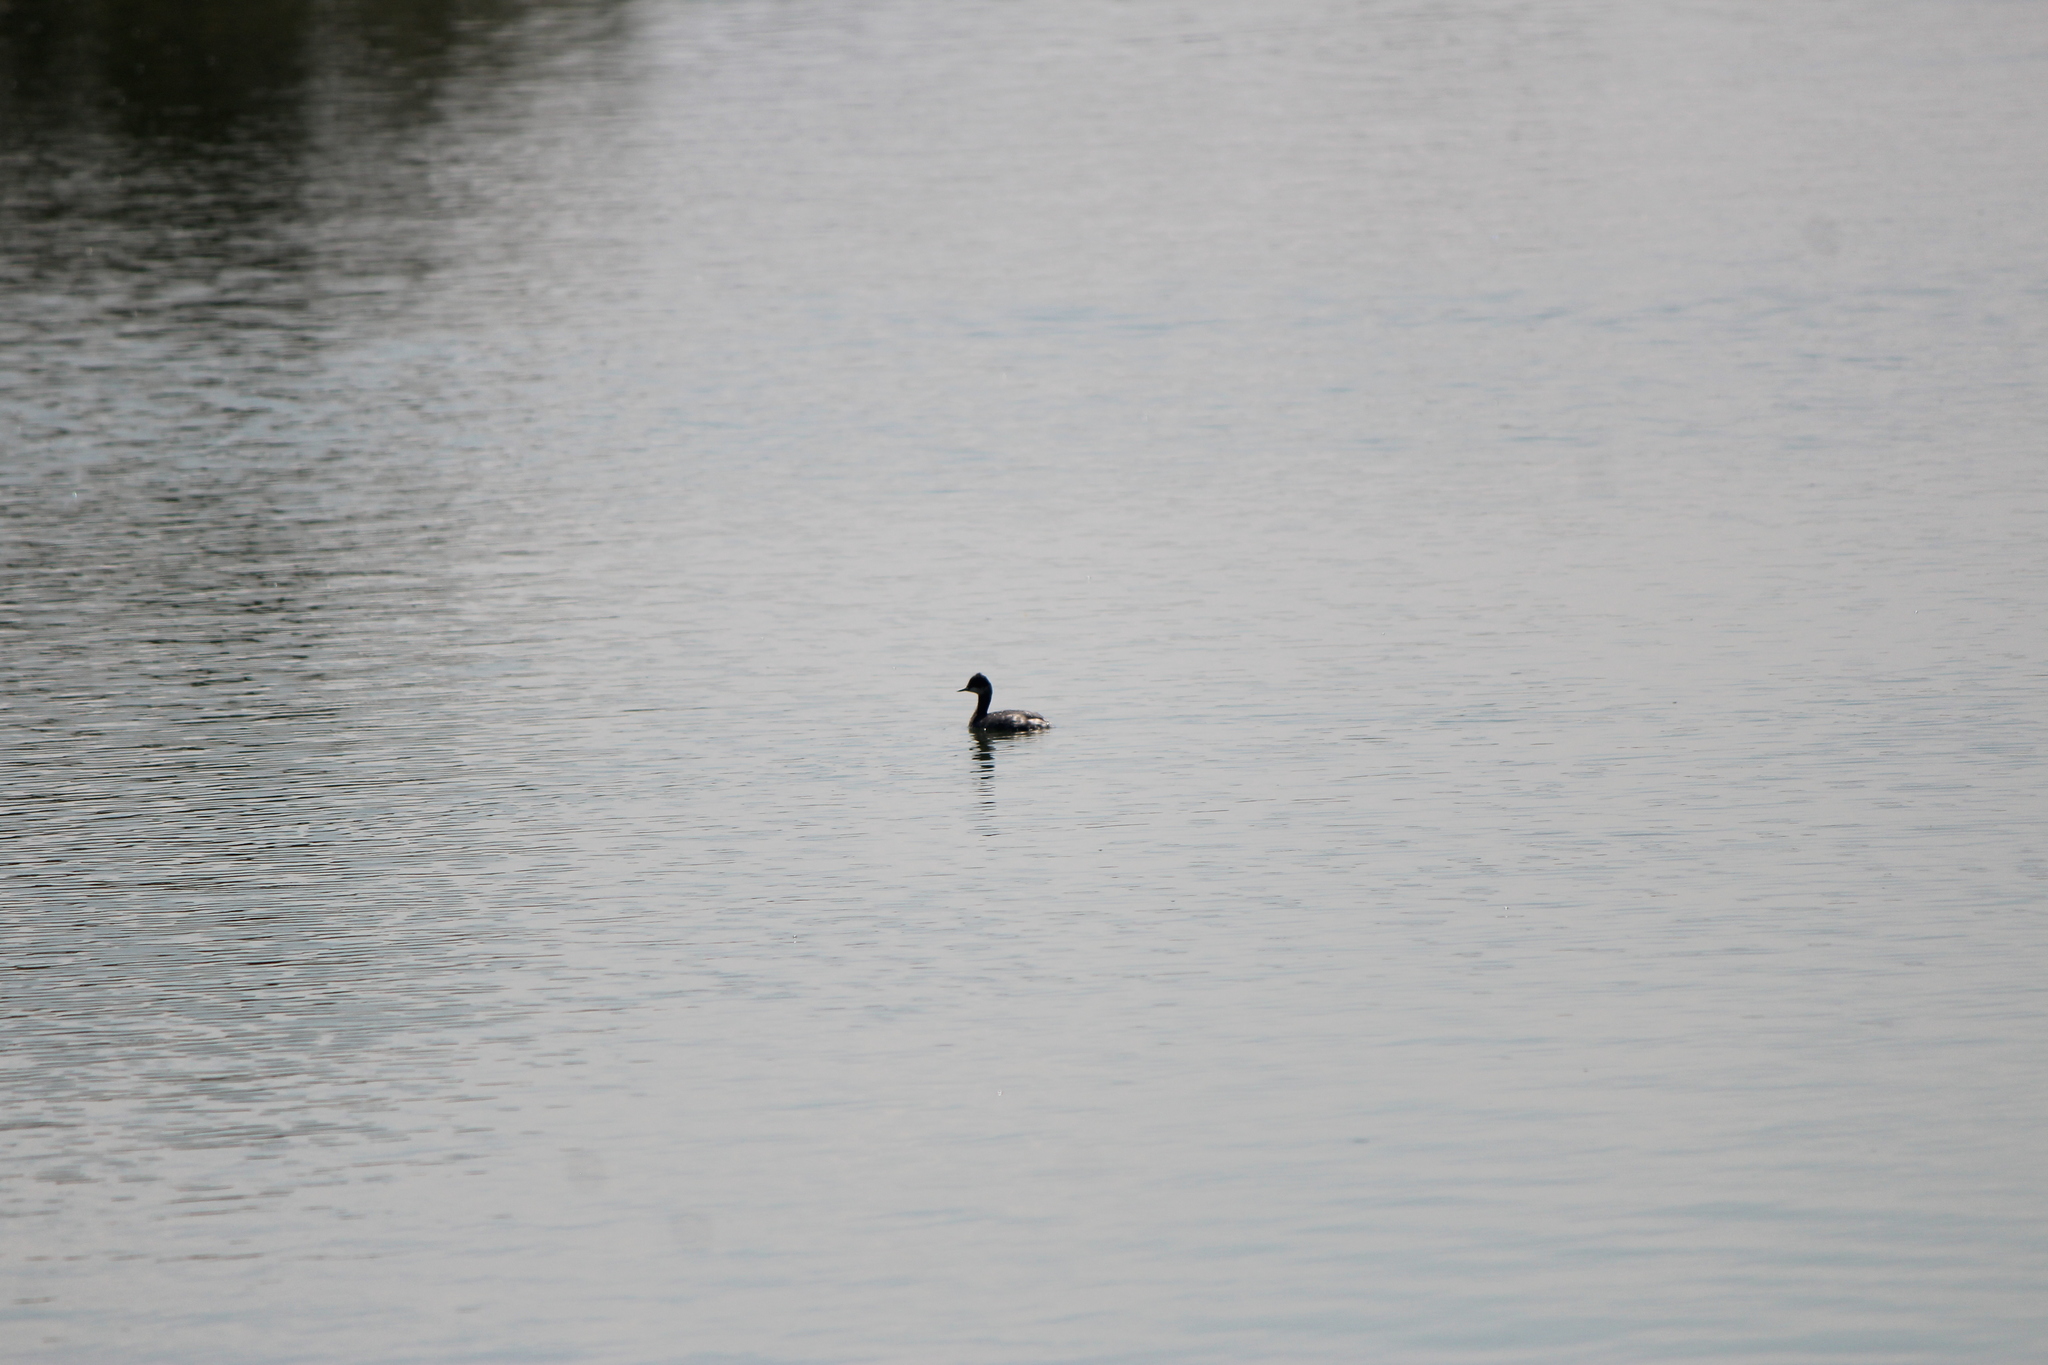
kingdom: Animalia
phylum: Chordata
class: Aves
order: Podicipediformes
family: Podicipedidae
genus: Podiceps
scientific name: Podiceps nigricollis
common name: Black-necked grebe
